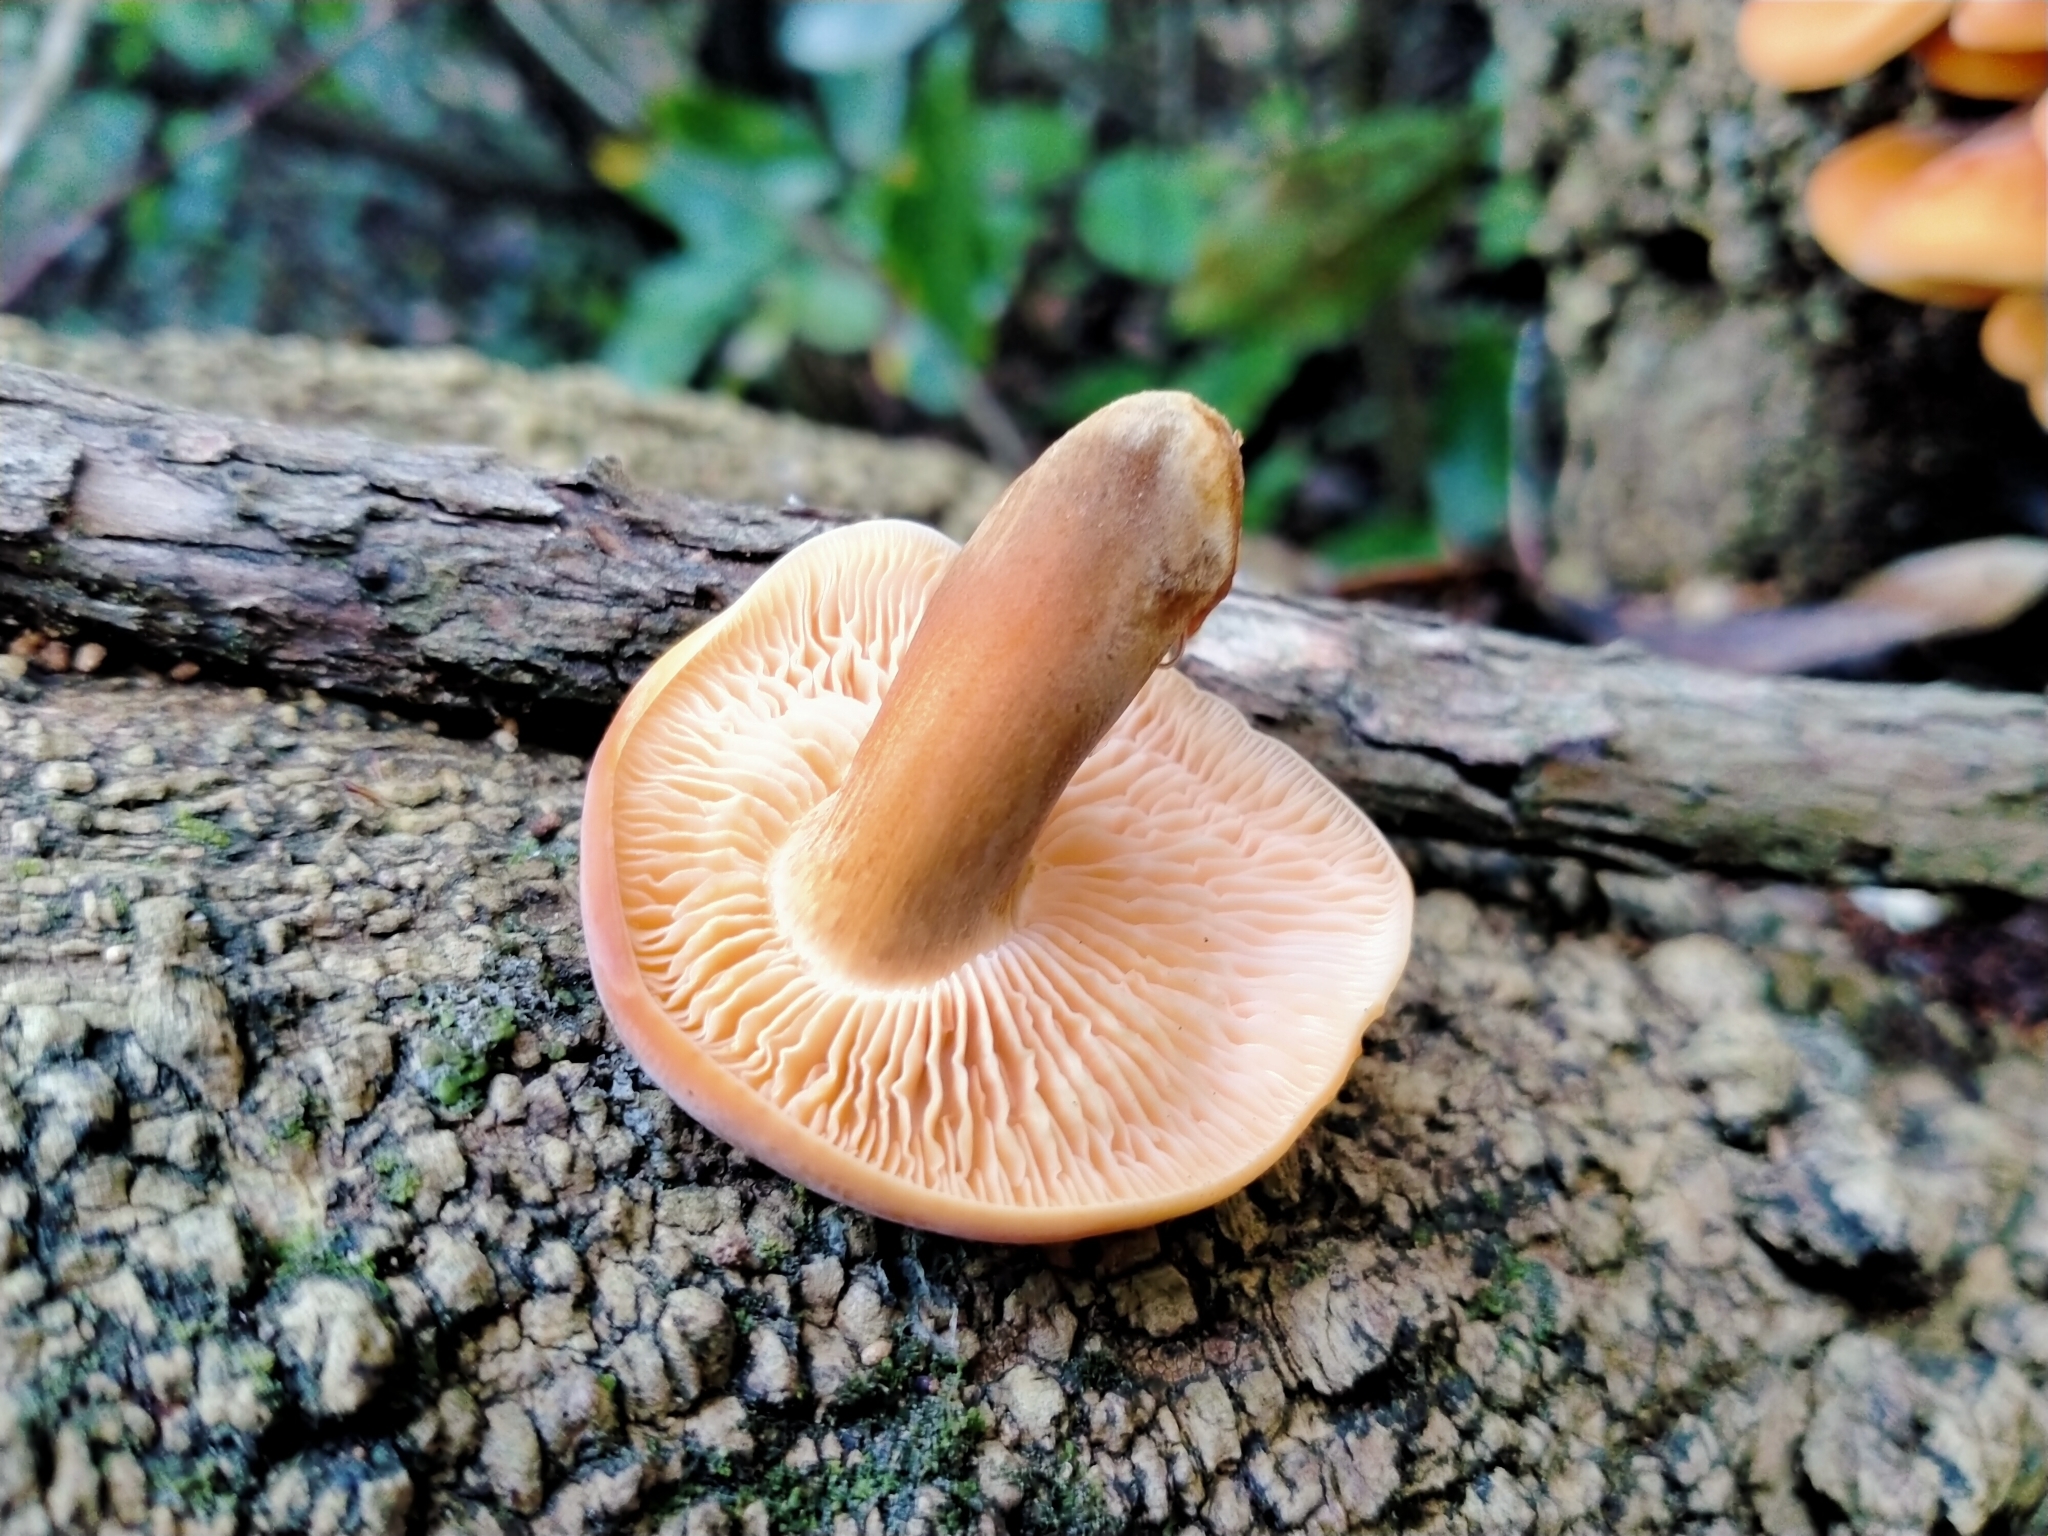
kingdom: Fungi
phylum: Basidiomycota
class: Agaricomycetes
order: Agaricales
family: Physalacriaceae
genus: Flammulina
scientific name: Flammulina velutipes
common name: Velvet shank
